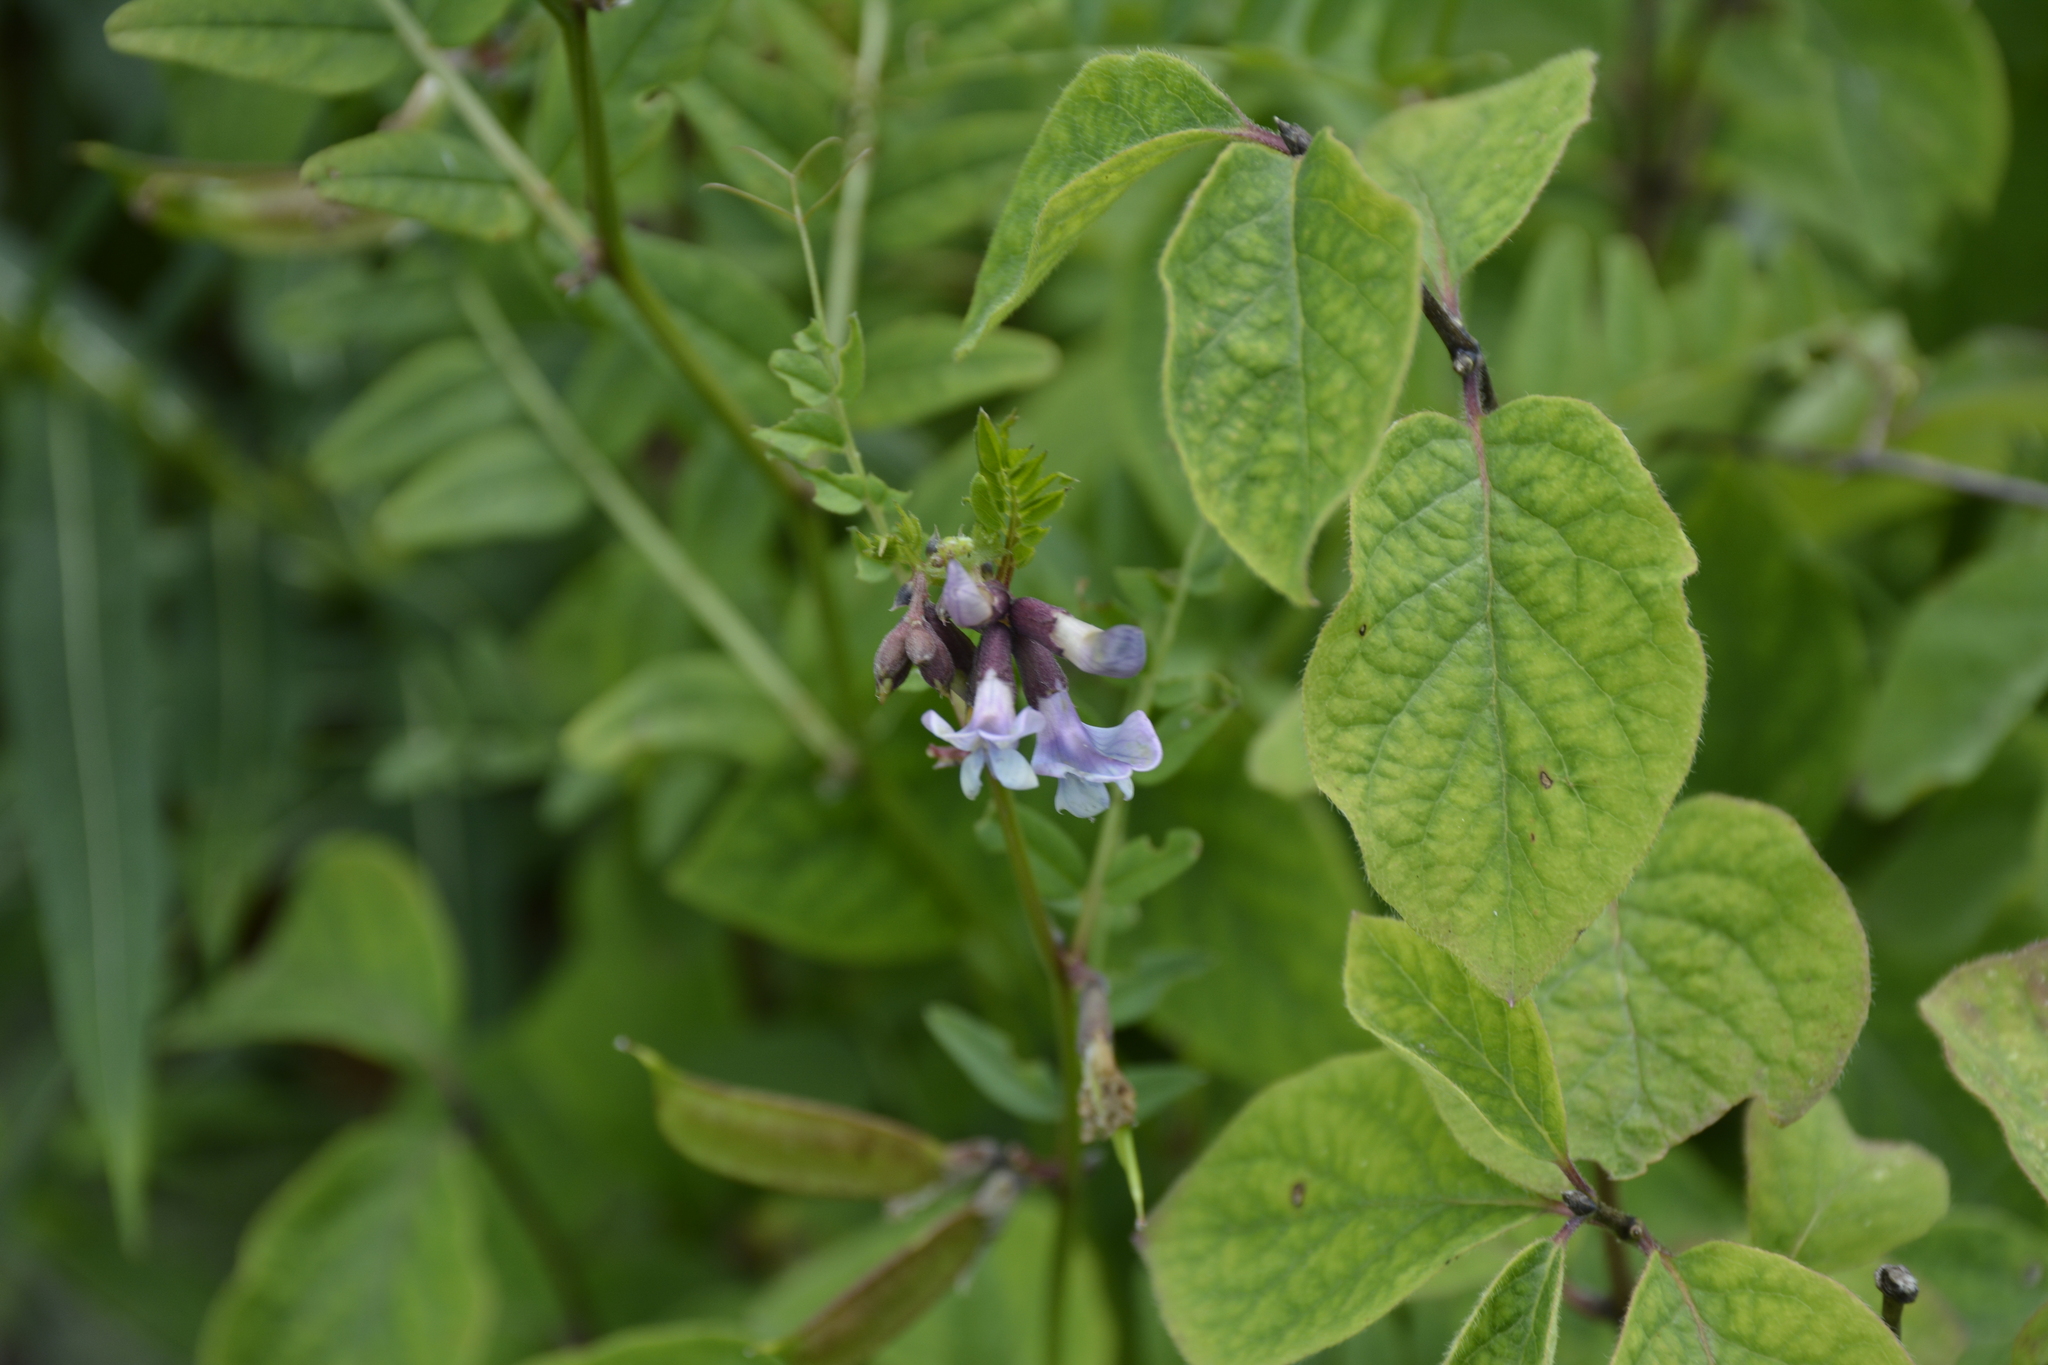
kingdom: Plantae
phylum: Tracheophyta
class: Magnoliopsida
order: Fabales
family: Fabaceae
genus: Vicia
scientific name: Vicia sepium
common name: Bush vetch
